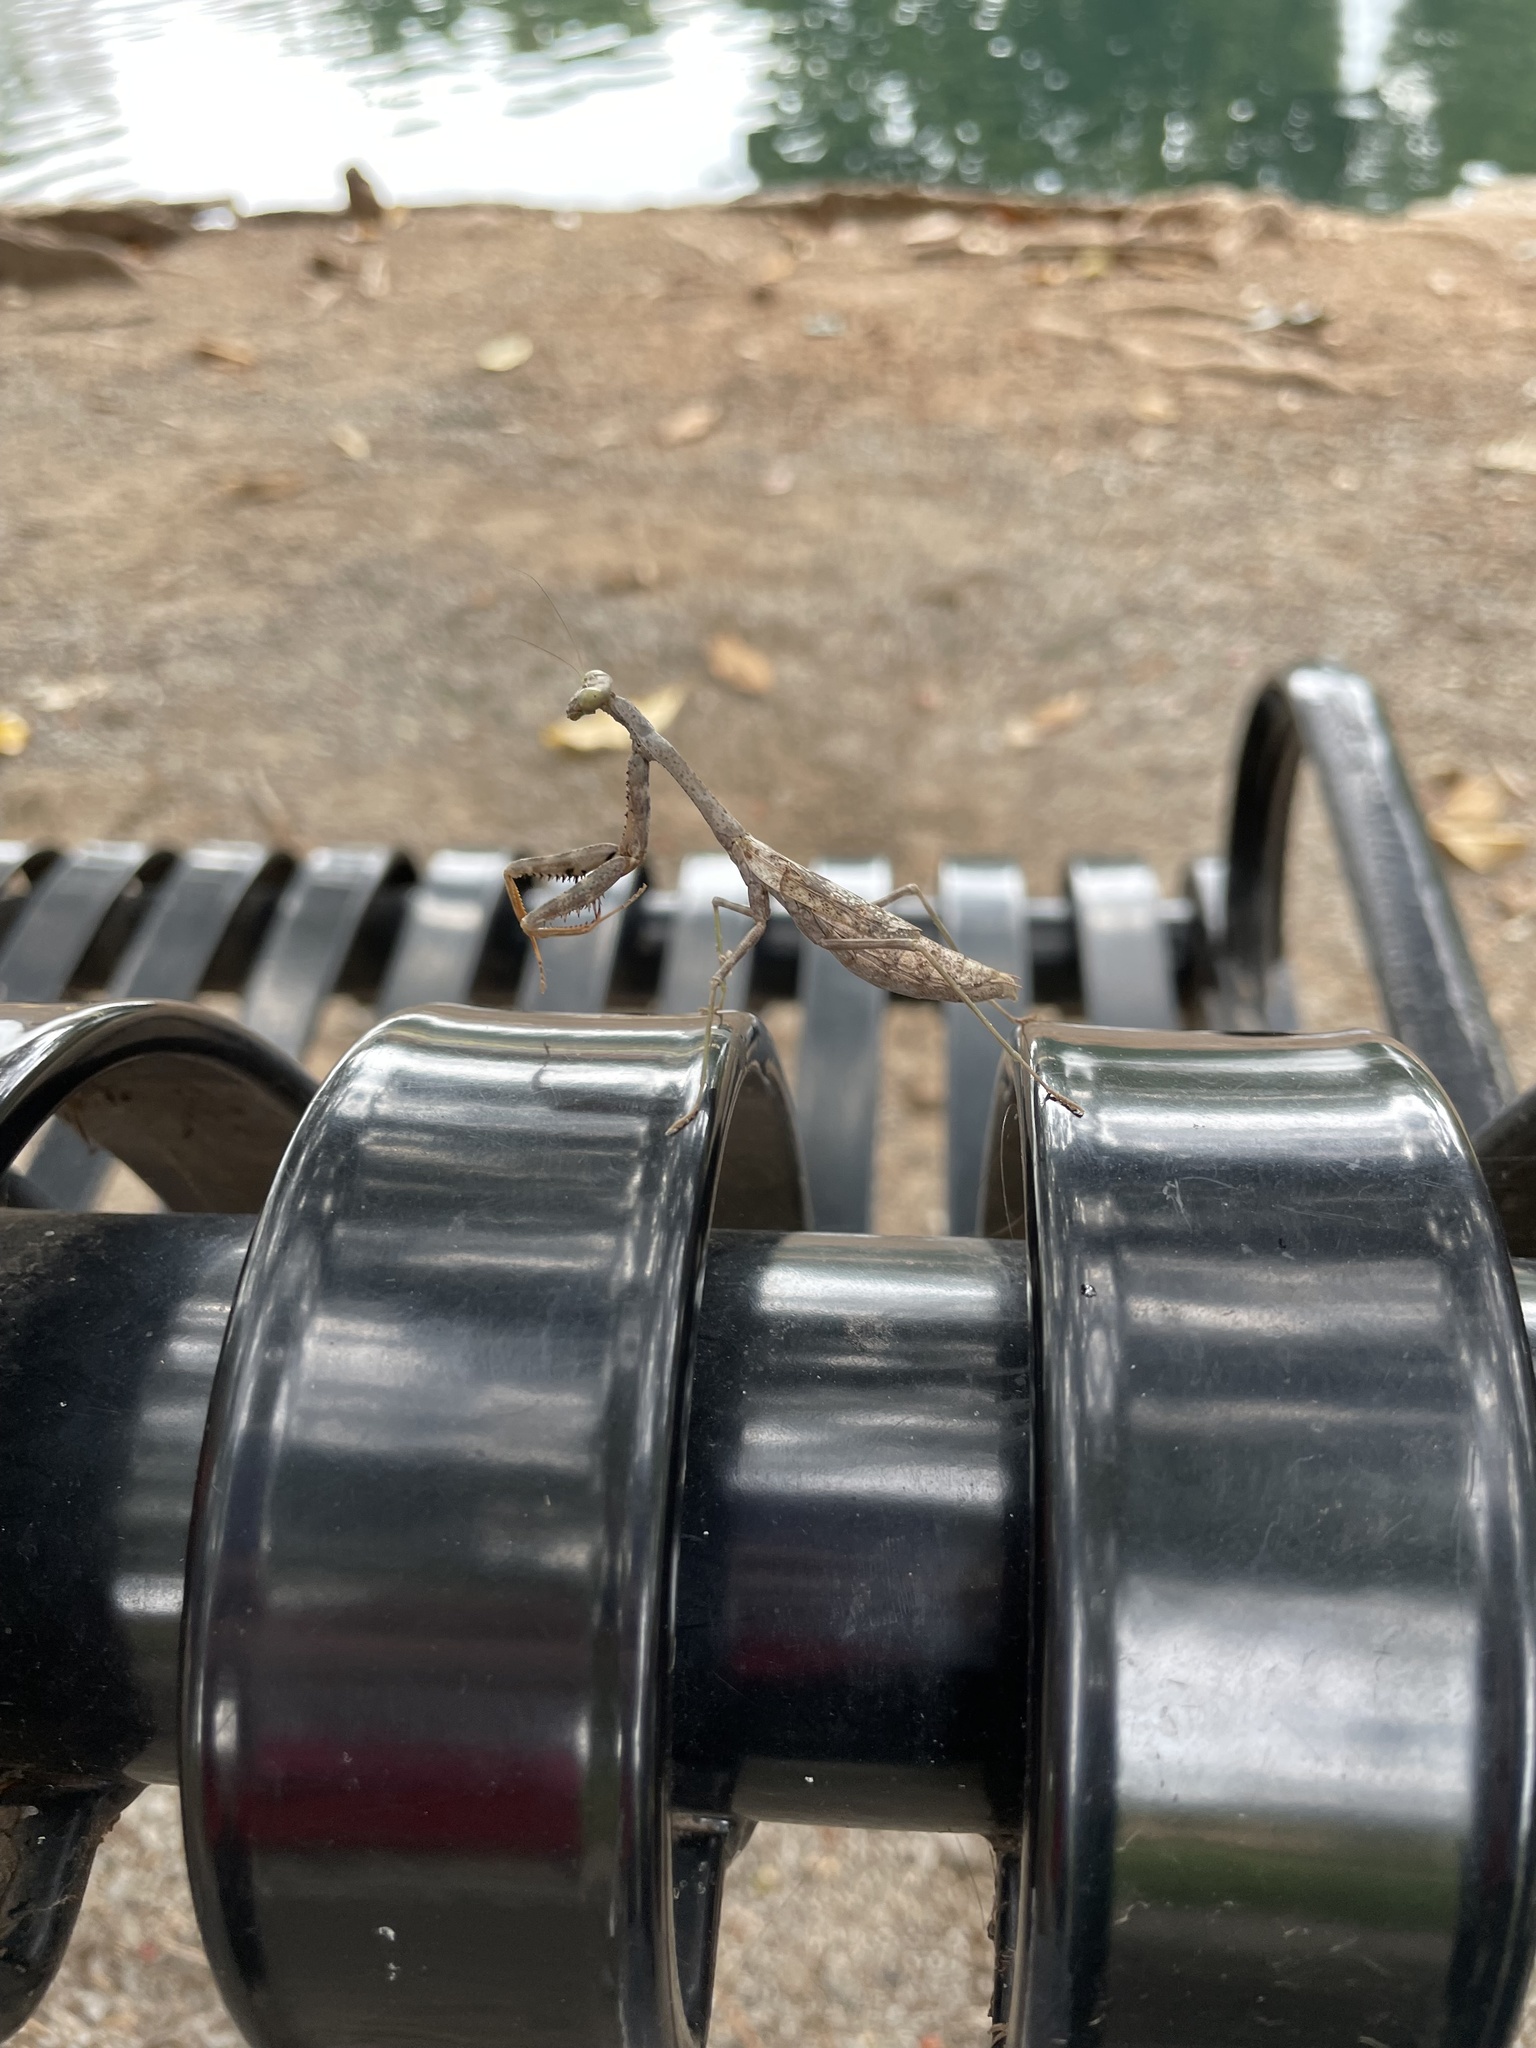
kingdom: Animalia
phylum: Arthropoda
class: Insecta
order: Mantodea
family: Mantidae
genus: Stagmomantis
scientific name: Stagmomantis carolina
